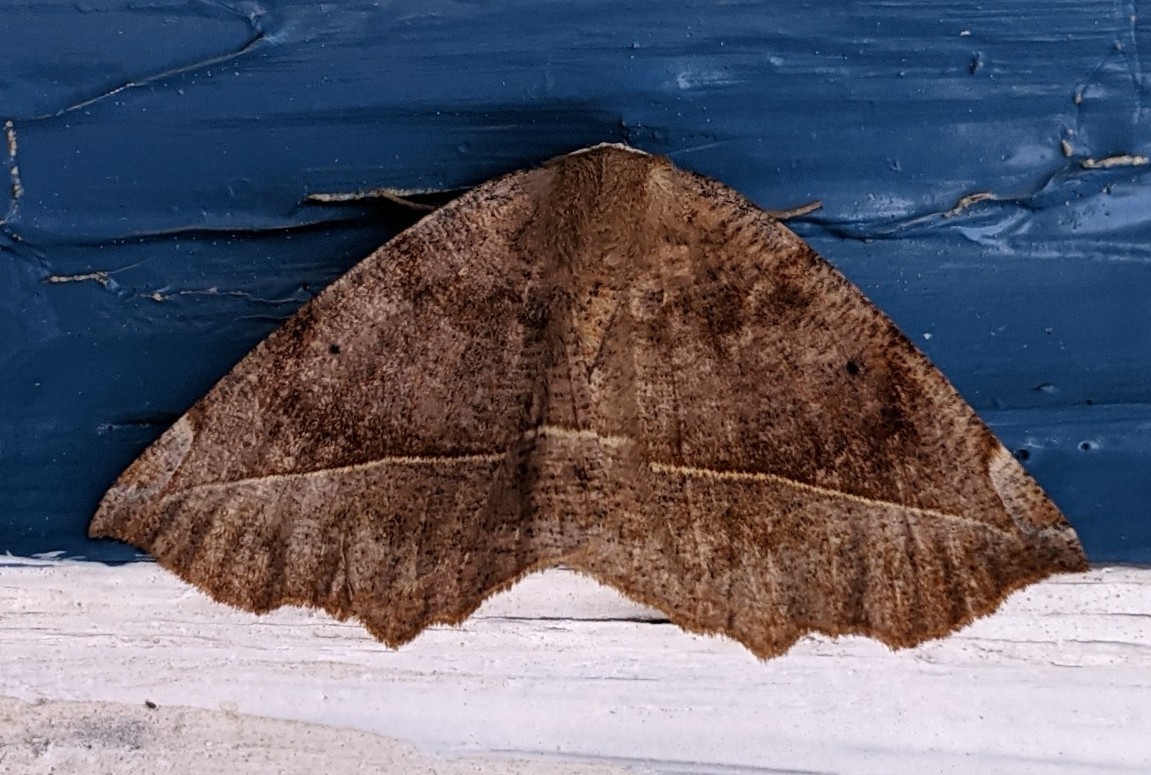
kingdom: Animalia
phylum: Arthropoda
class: Insecta
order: Lepidoptera
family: Geometridae
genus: Eutrapela
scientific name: Eutrapela clemataria
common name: Curved-toothed geometer
